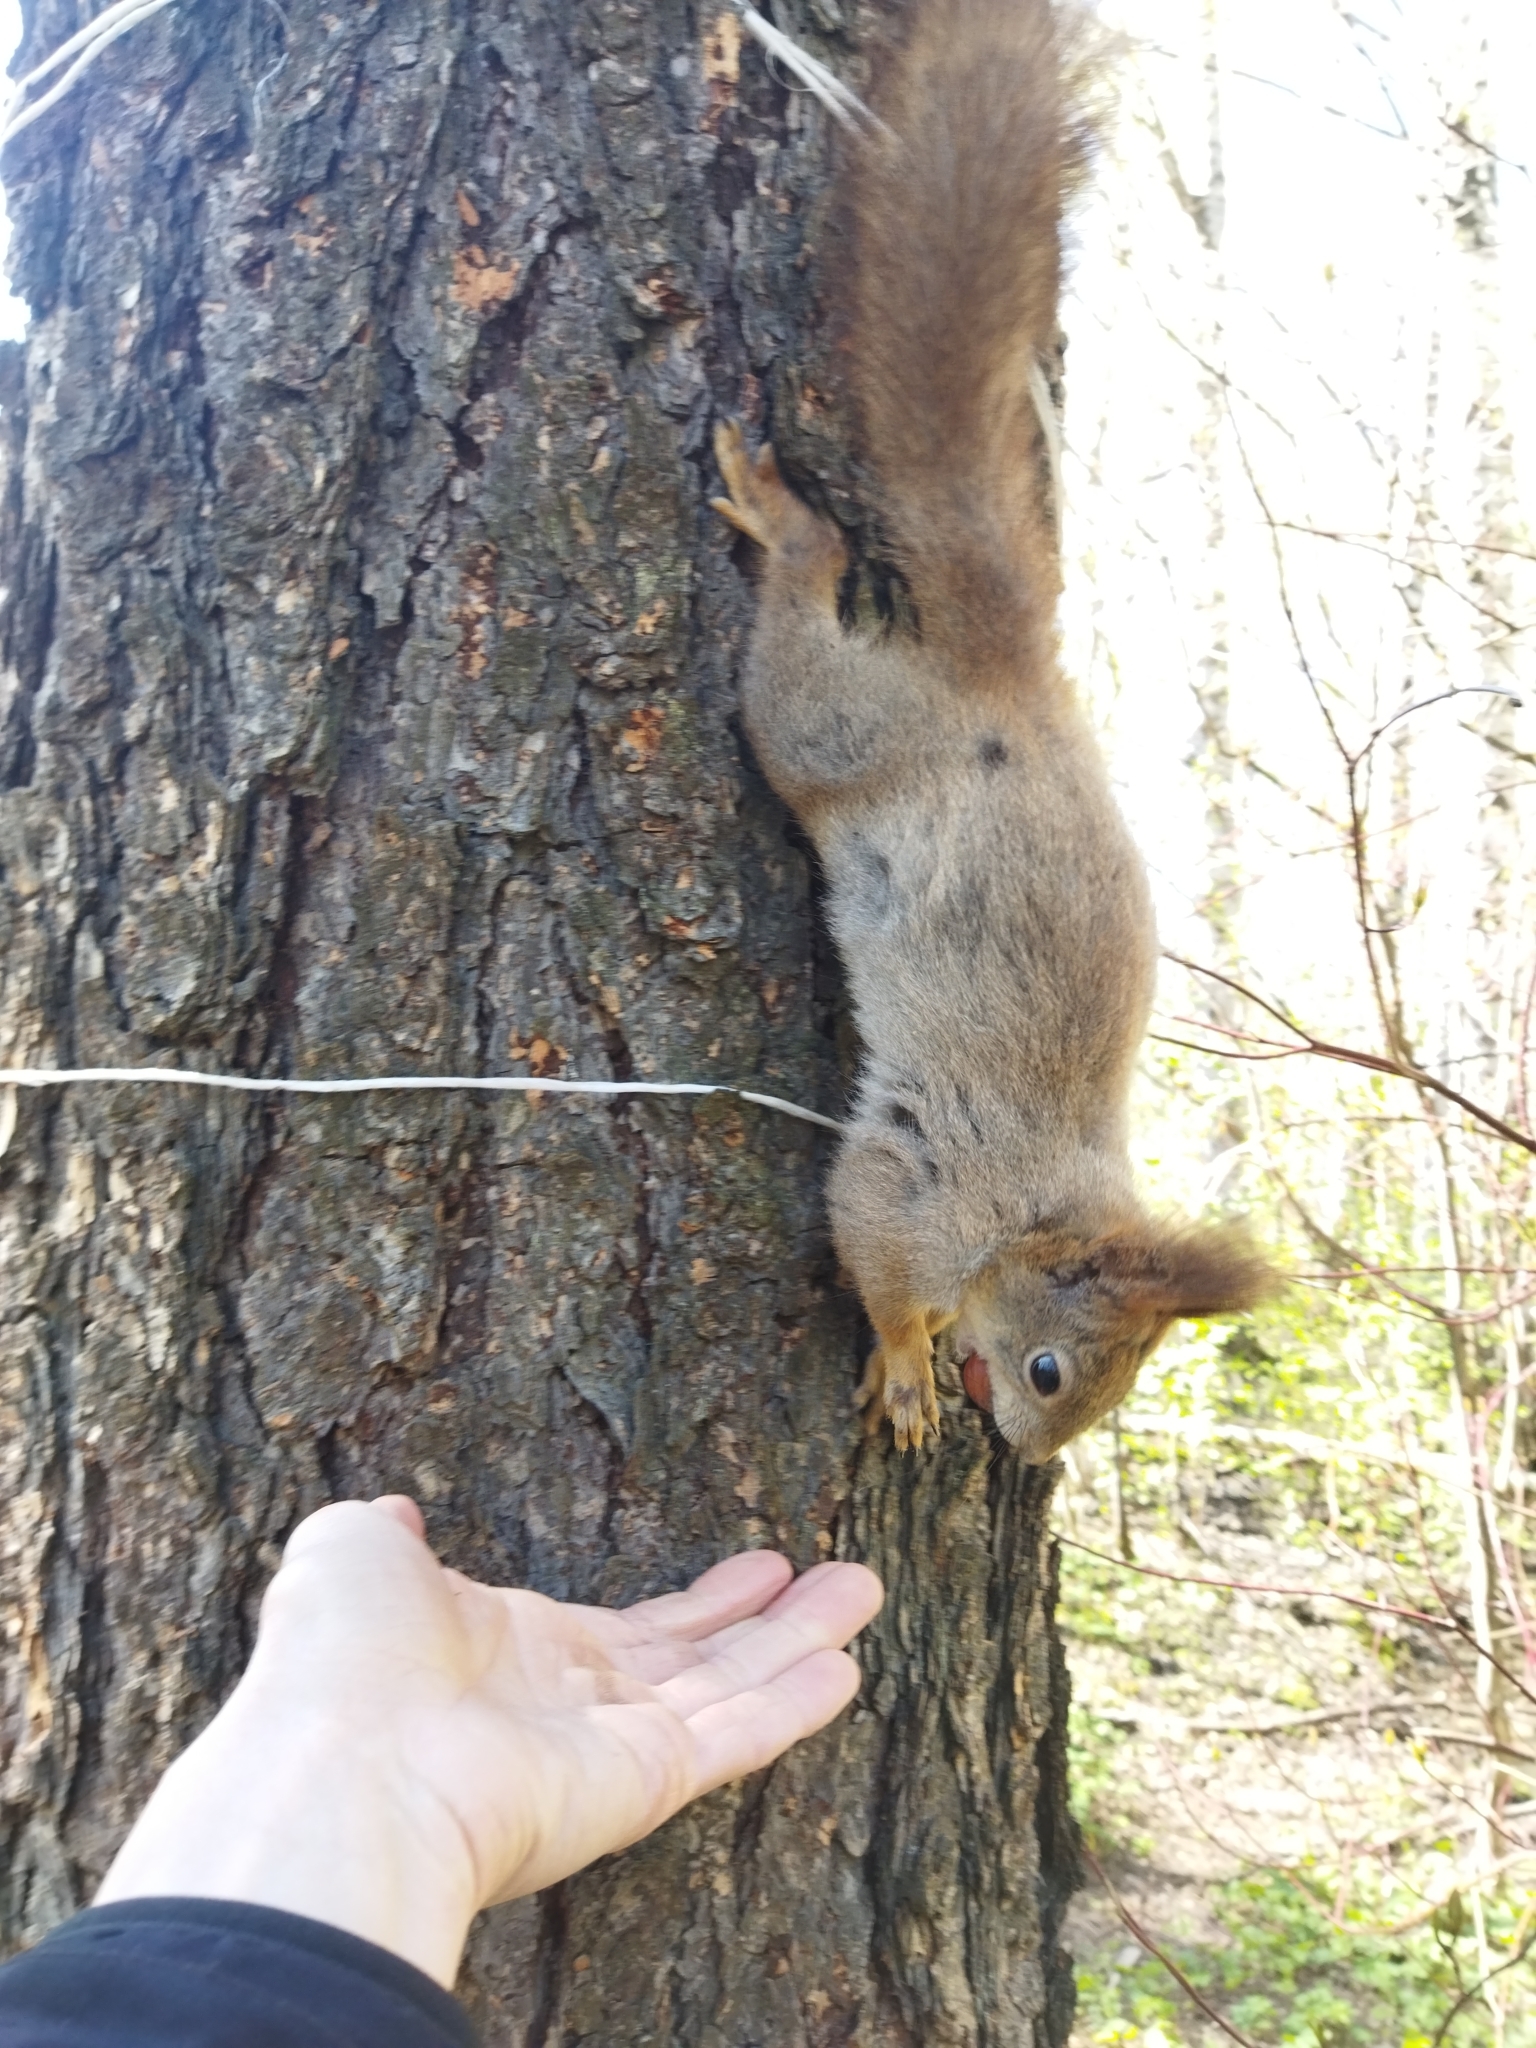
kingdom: Animalia
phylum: Chordata
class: Mammalia
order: Rodentia
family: Sciuridae
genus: Sciurus
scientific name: Sciurus vulgaris
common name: Eurasian red squirrel
